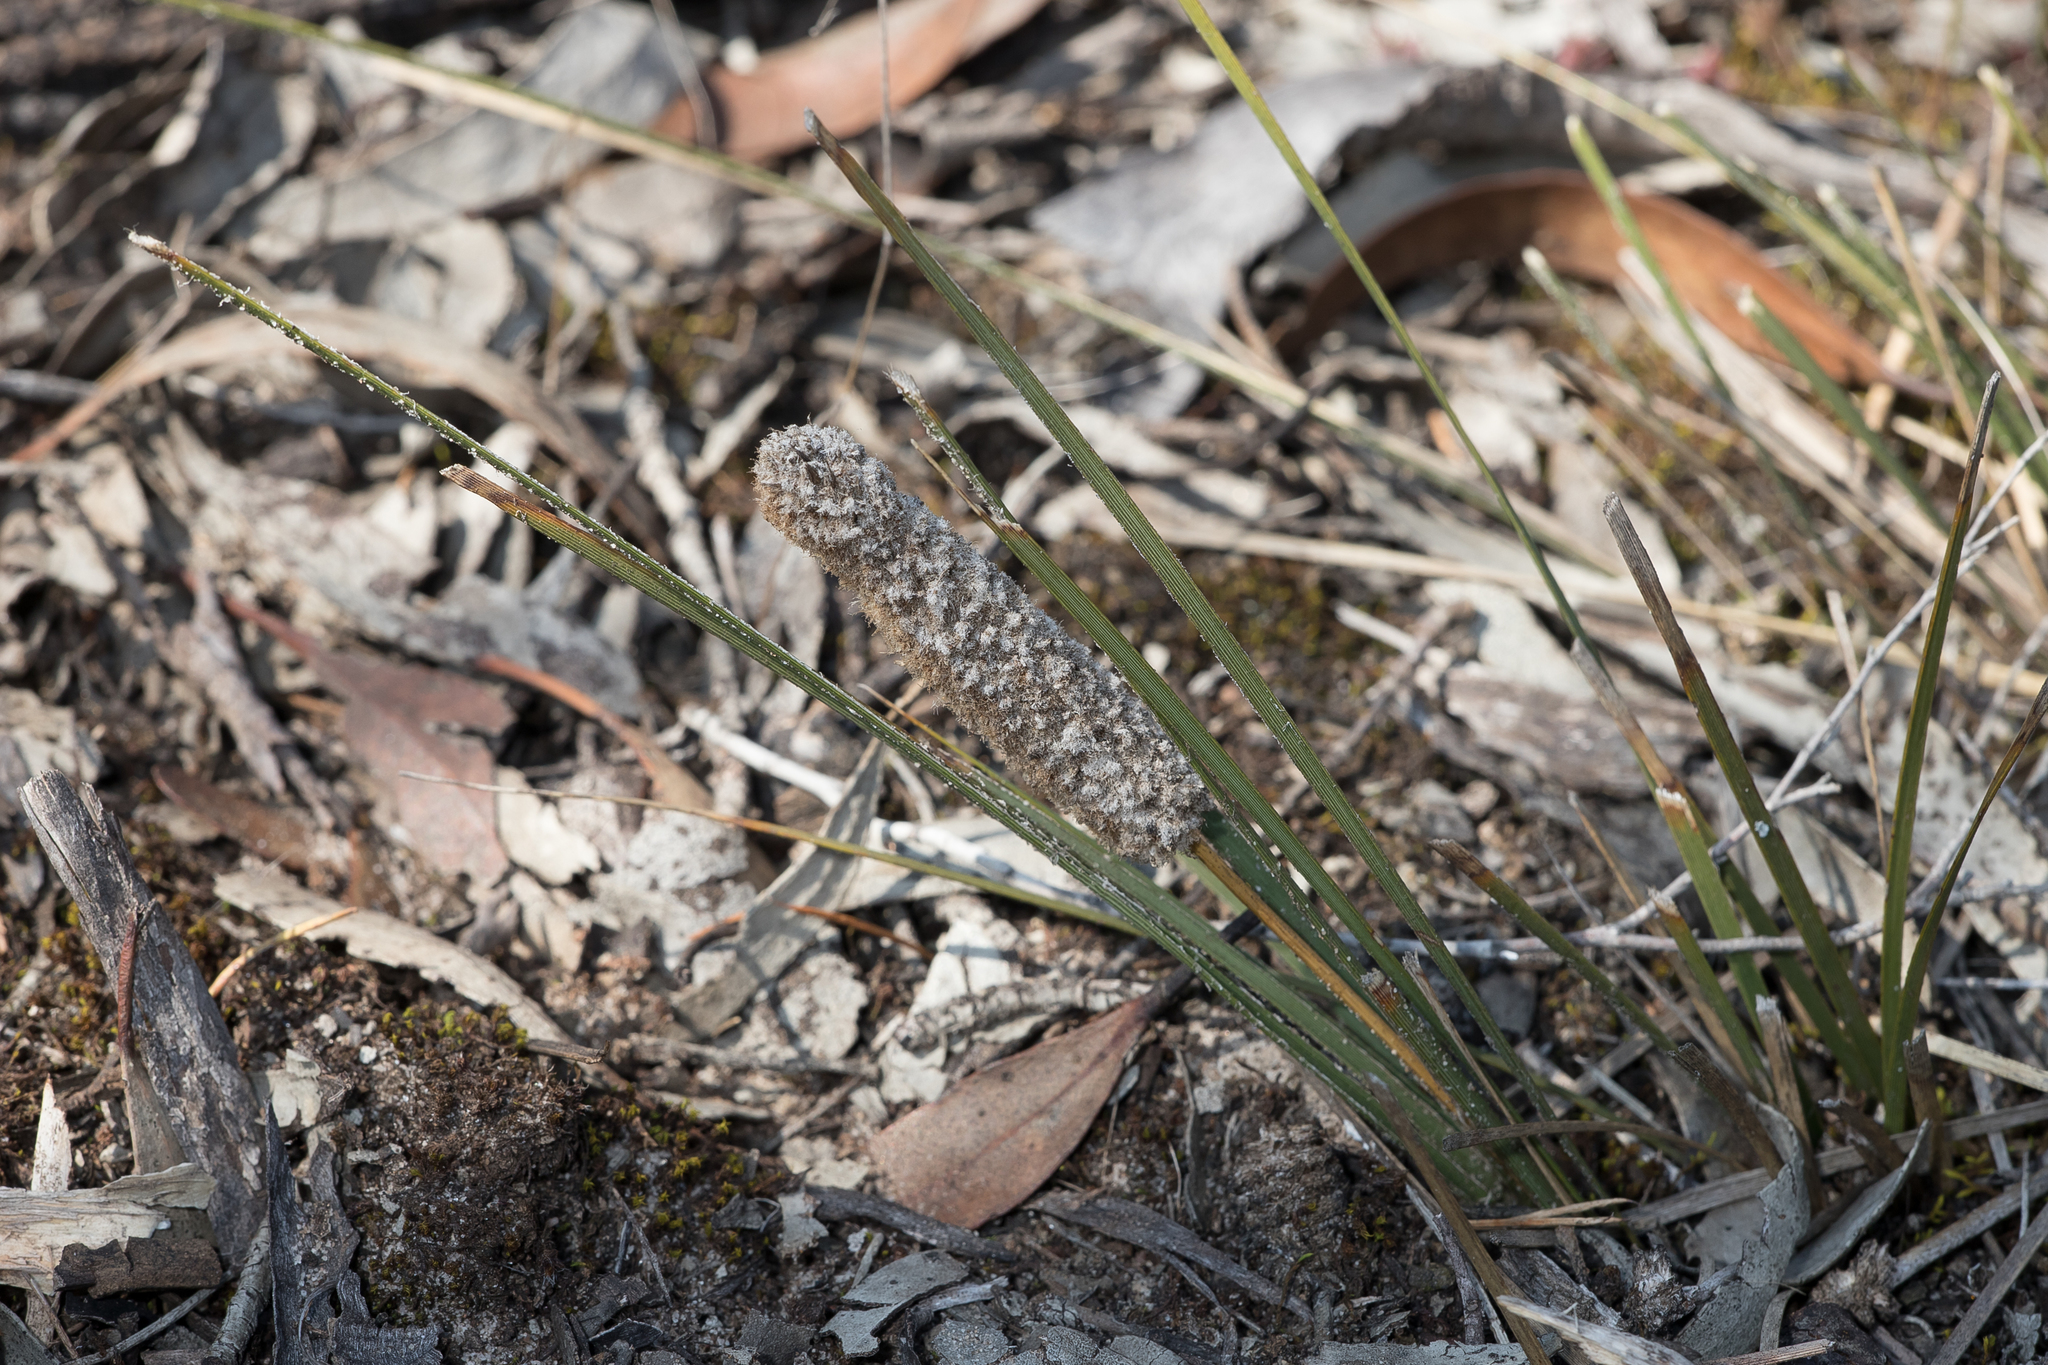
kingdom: Plantae
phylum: Tracheophyta
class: Liliopsida
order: Asparagales
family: Asparagaceae
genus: Lomandra
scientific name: Lomandra leucocephala
